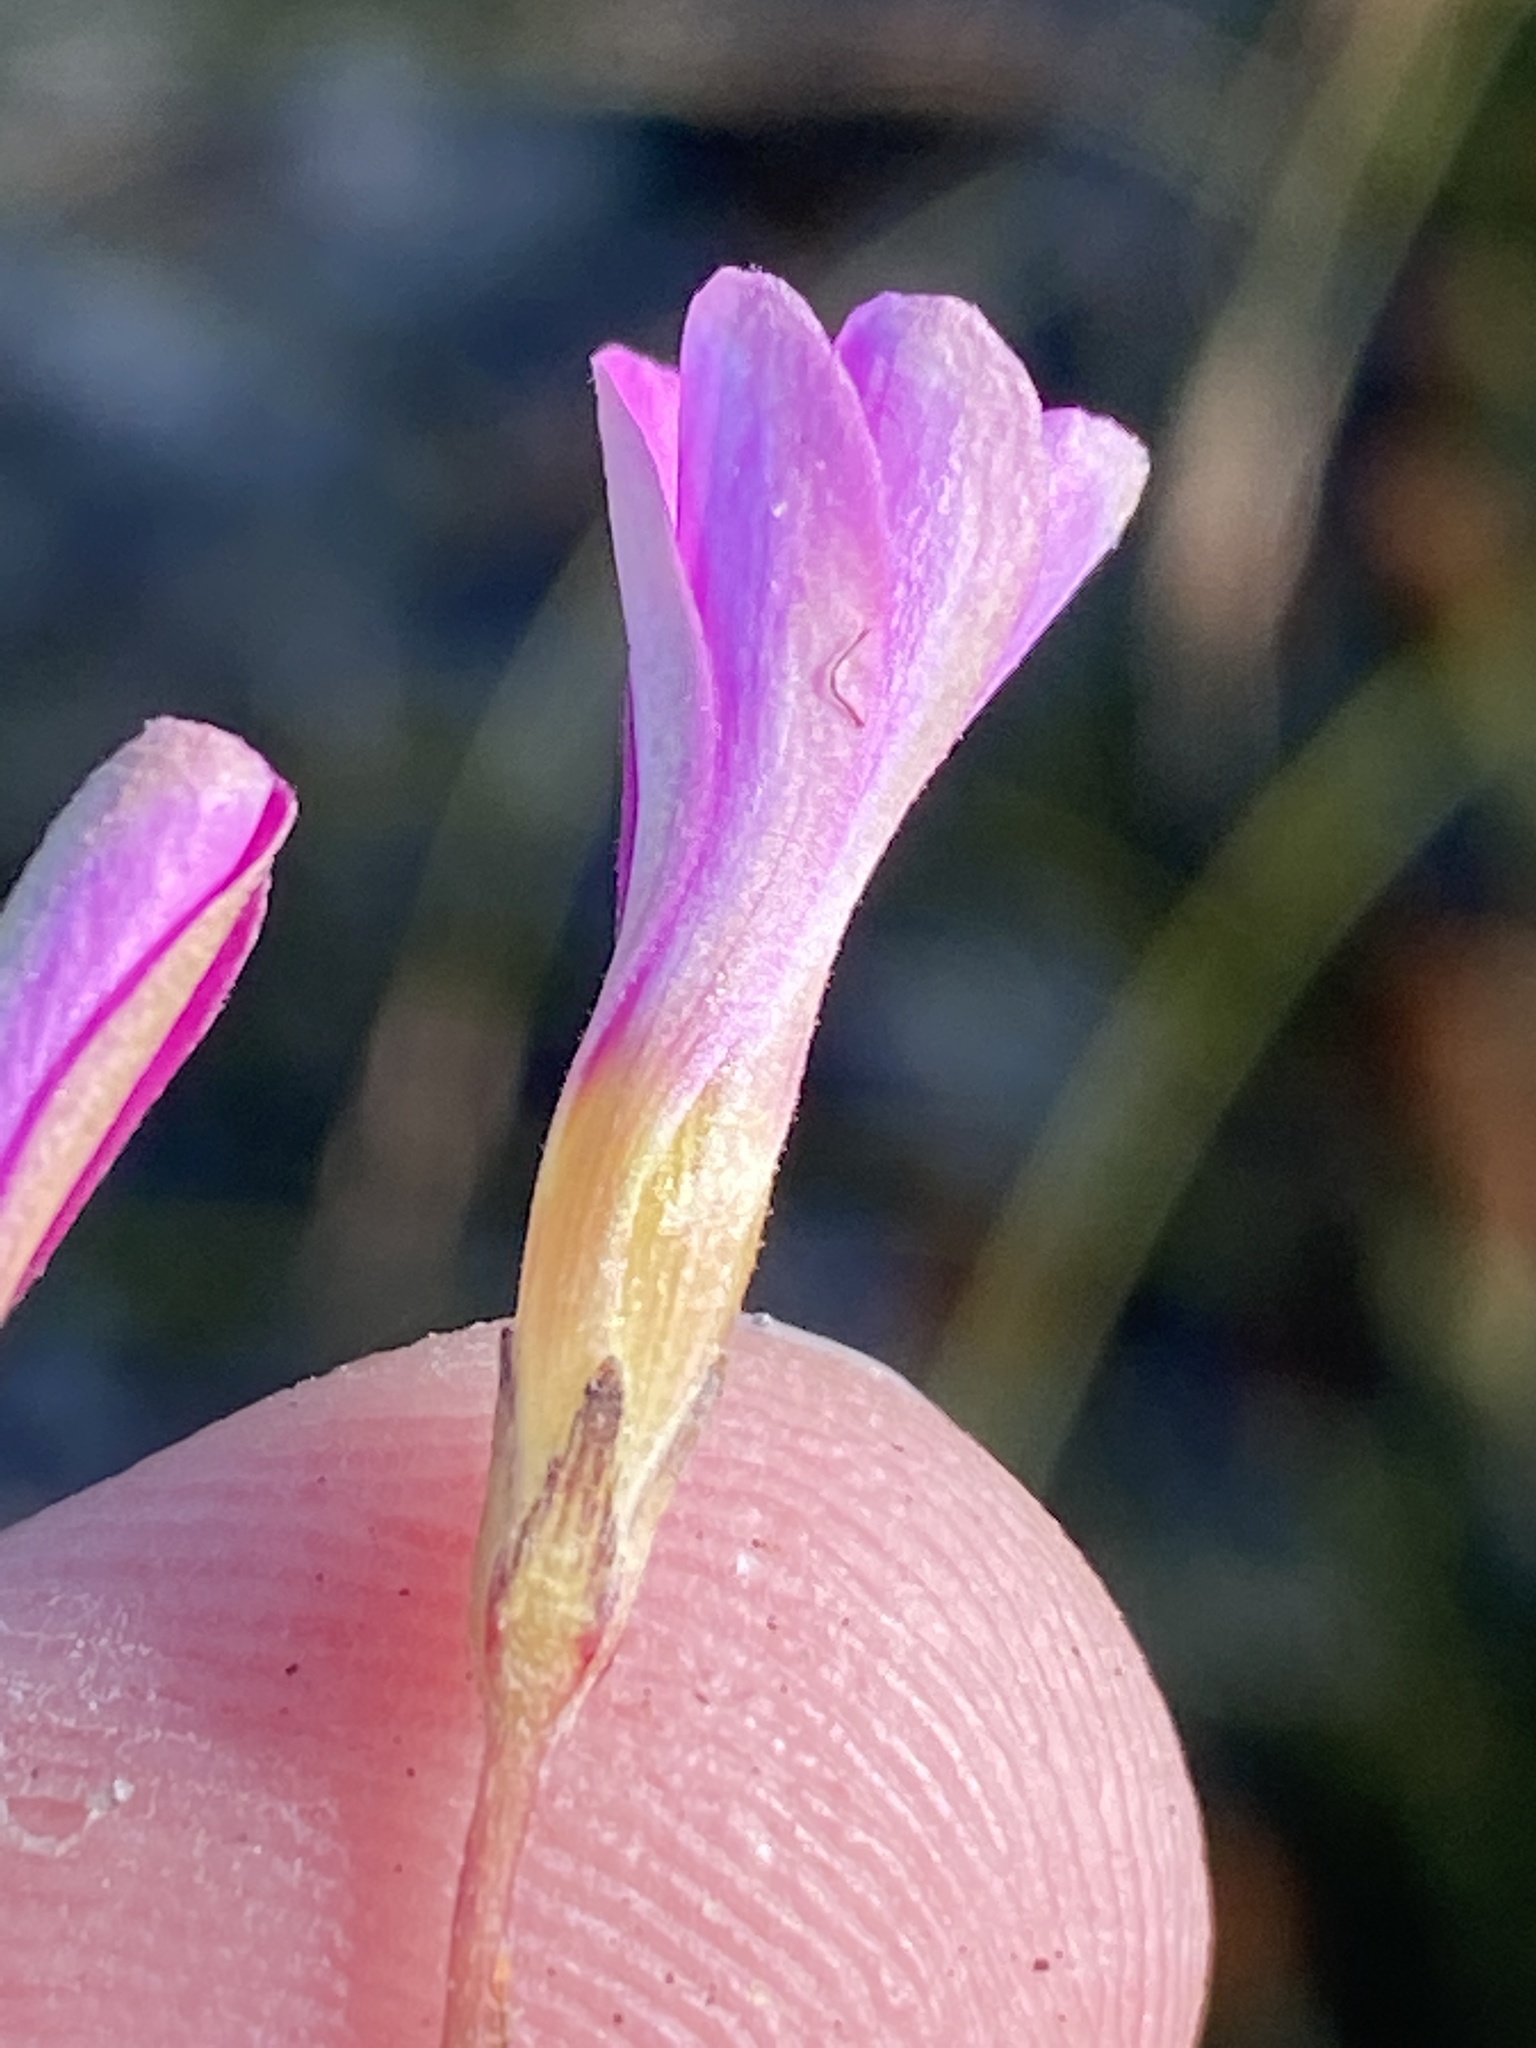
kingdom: Plantae
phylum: Tracheophyta
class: Magnoliopsida
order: Oxalidales
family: Oxalidaceae
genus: Oxalis
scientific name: Oxalis polyphylla
